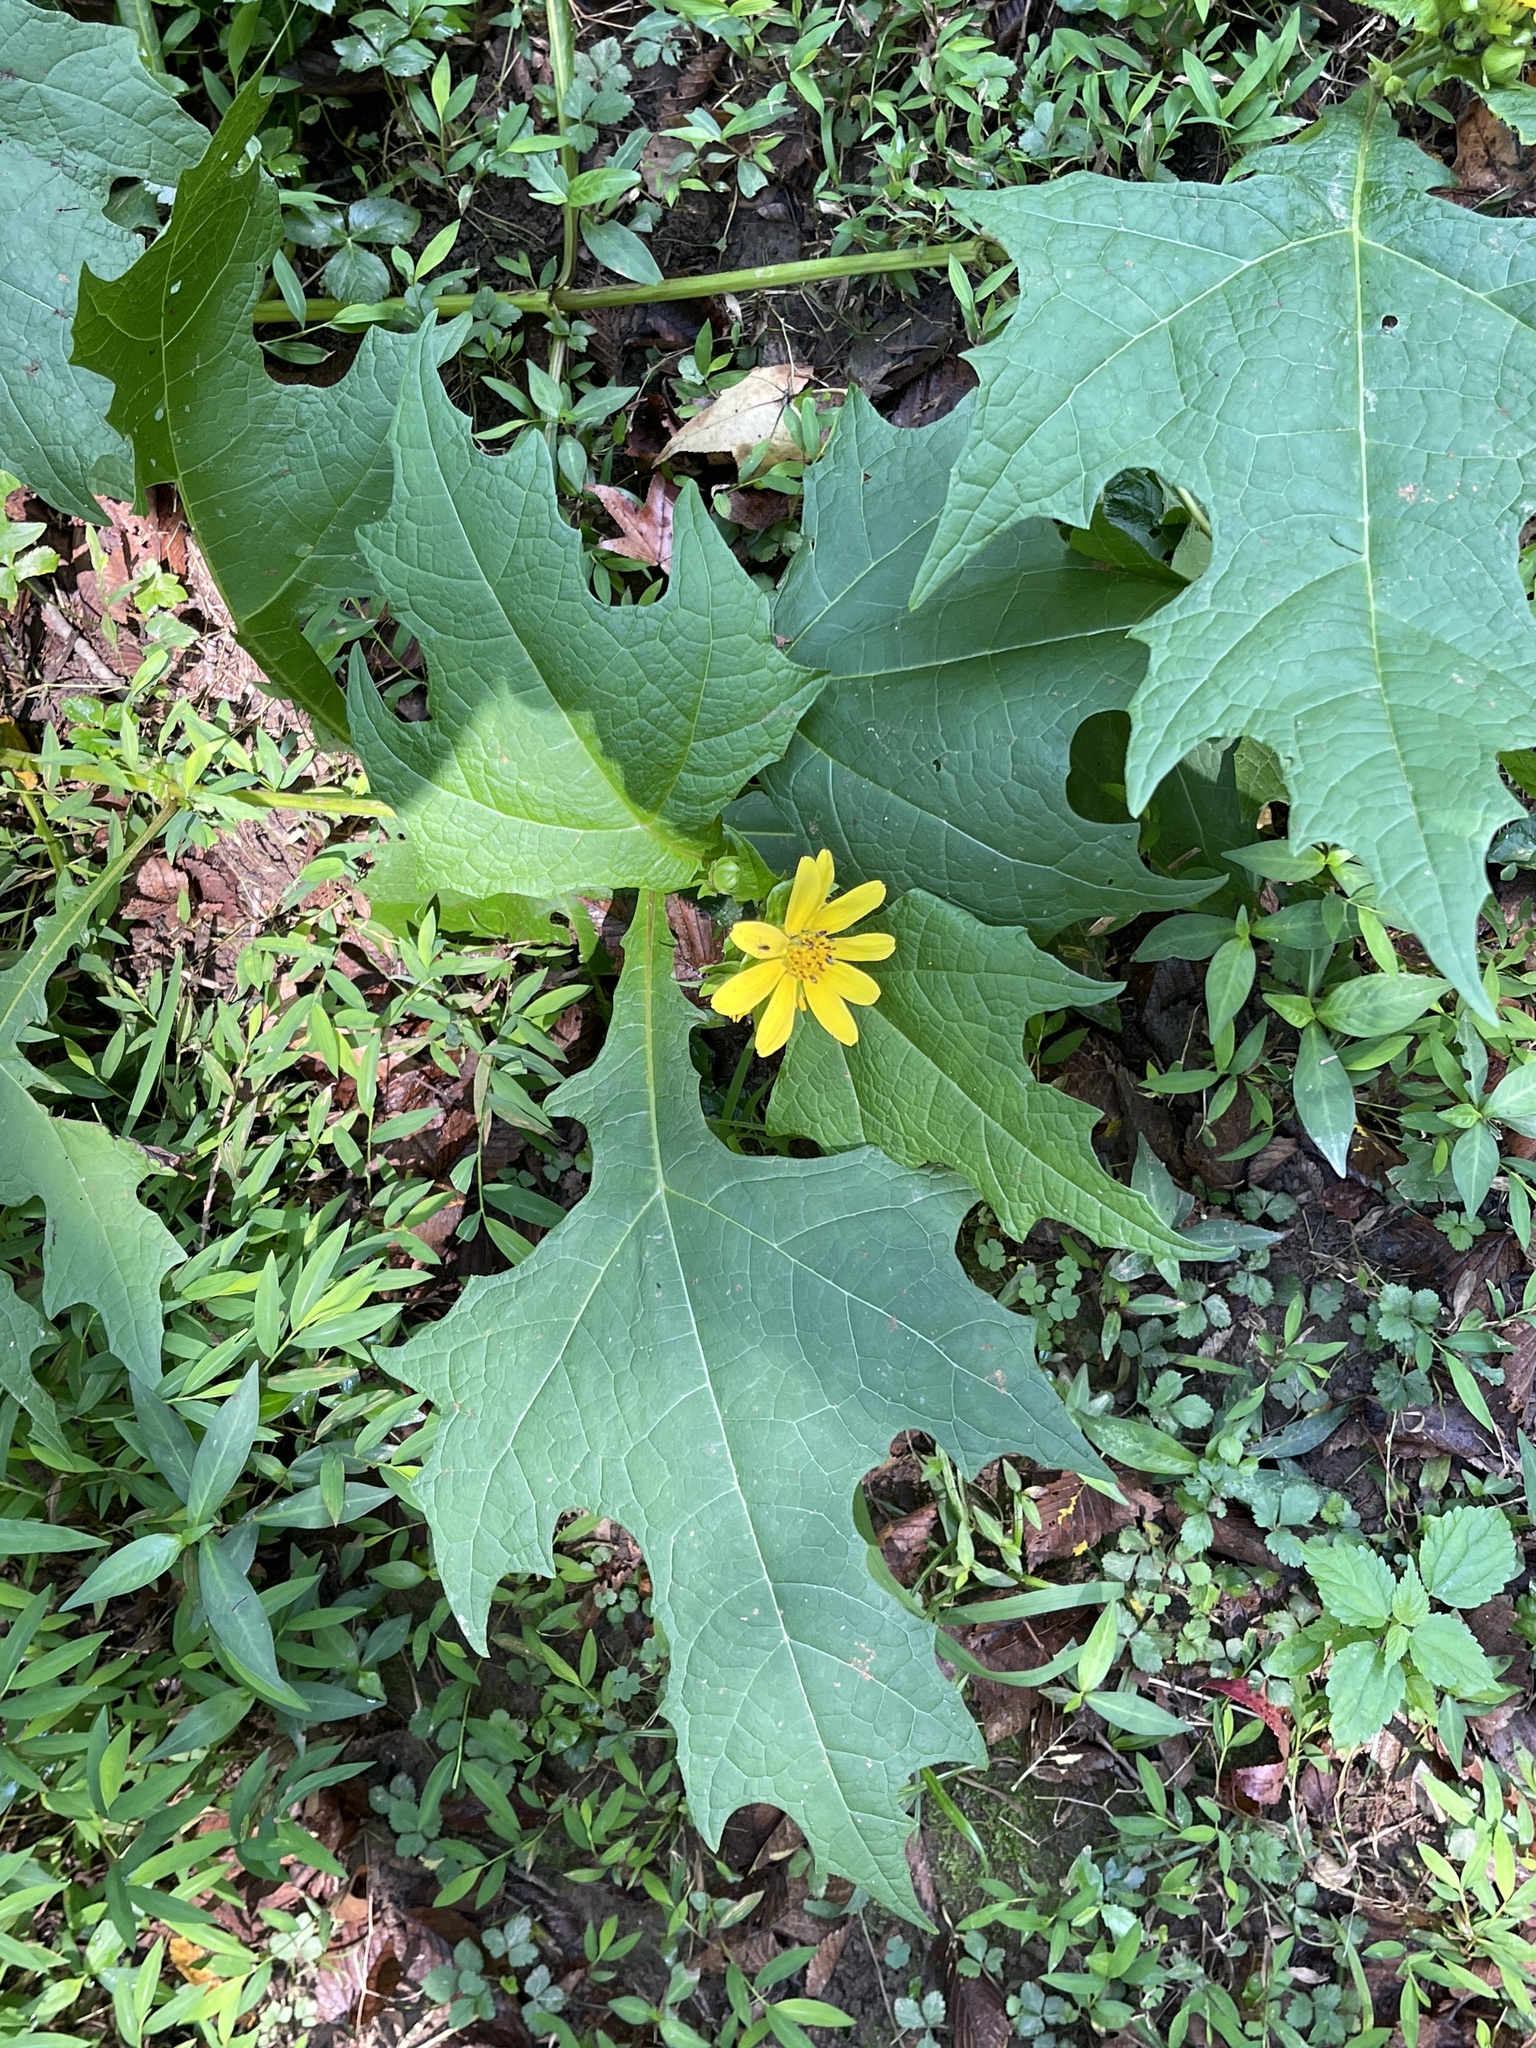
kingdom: Plantae
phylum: Tracheophyta
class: Magnoliopsida
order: Asterales
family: Asteraceae
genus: Smallanthus
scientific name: Smallanthus uvedalia
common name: Bear's-foot
